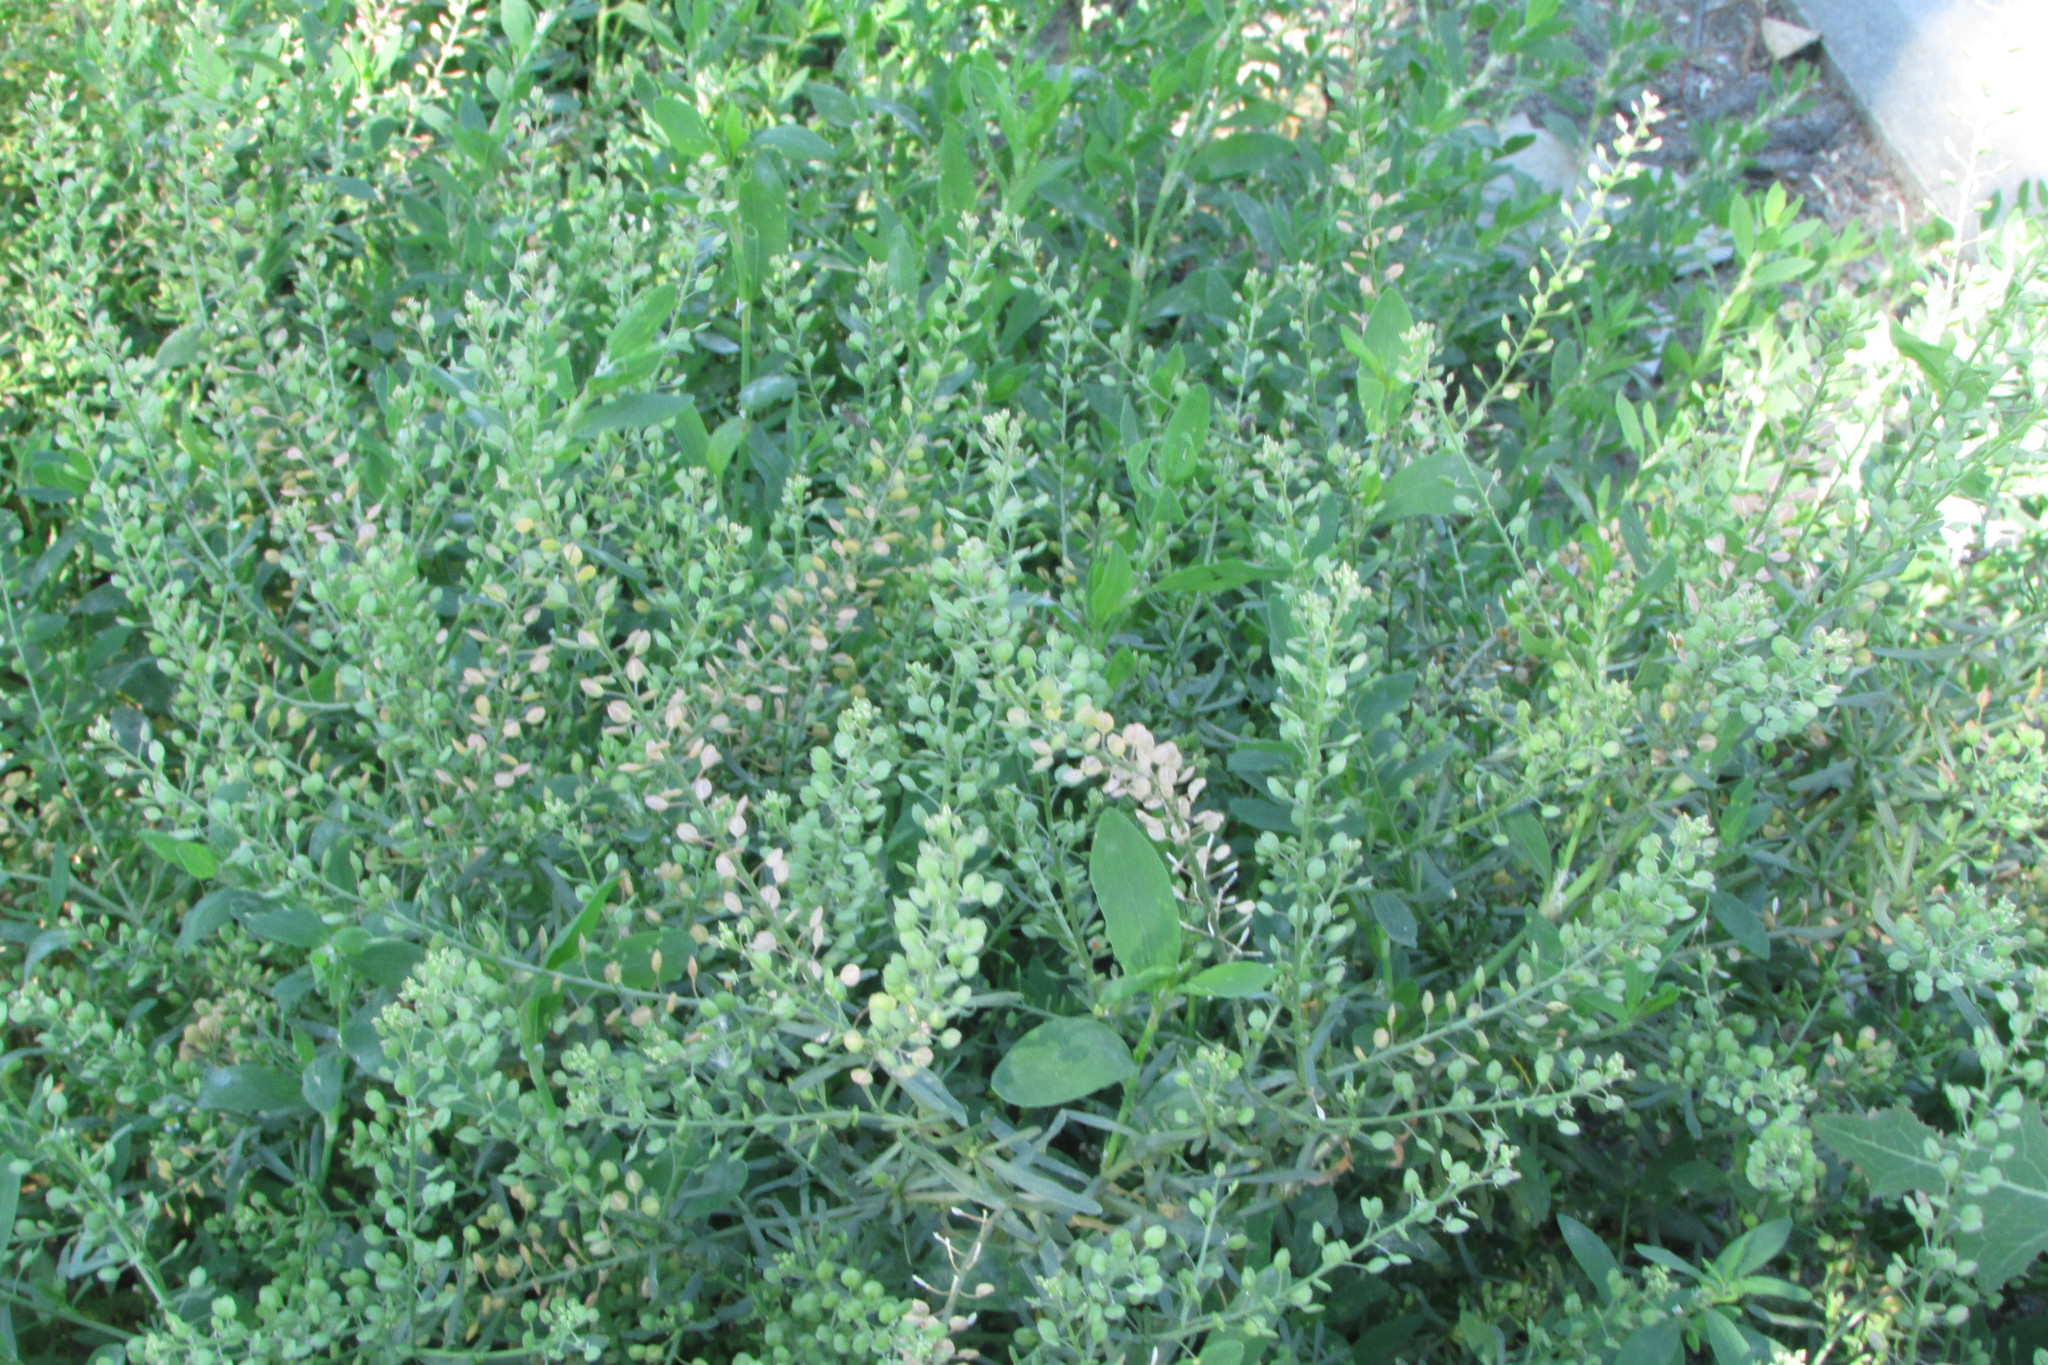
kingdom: Plantae
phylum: Tracheophyta
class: Magnoliopsida
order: Brassicales
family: Brassicaceae
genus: Lepidium
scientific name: Lepidium ruderale
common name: Narrow-leaved pepperwort
